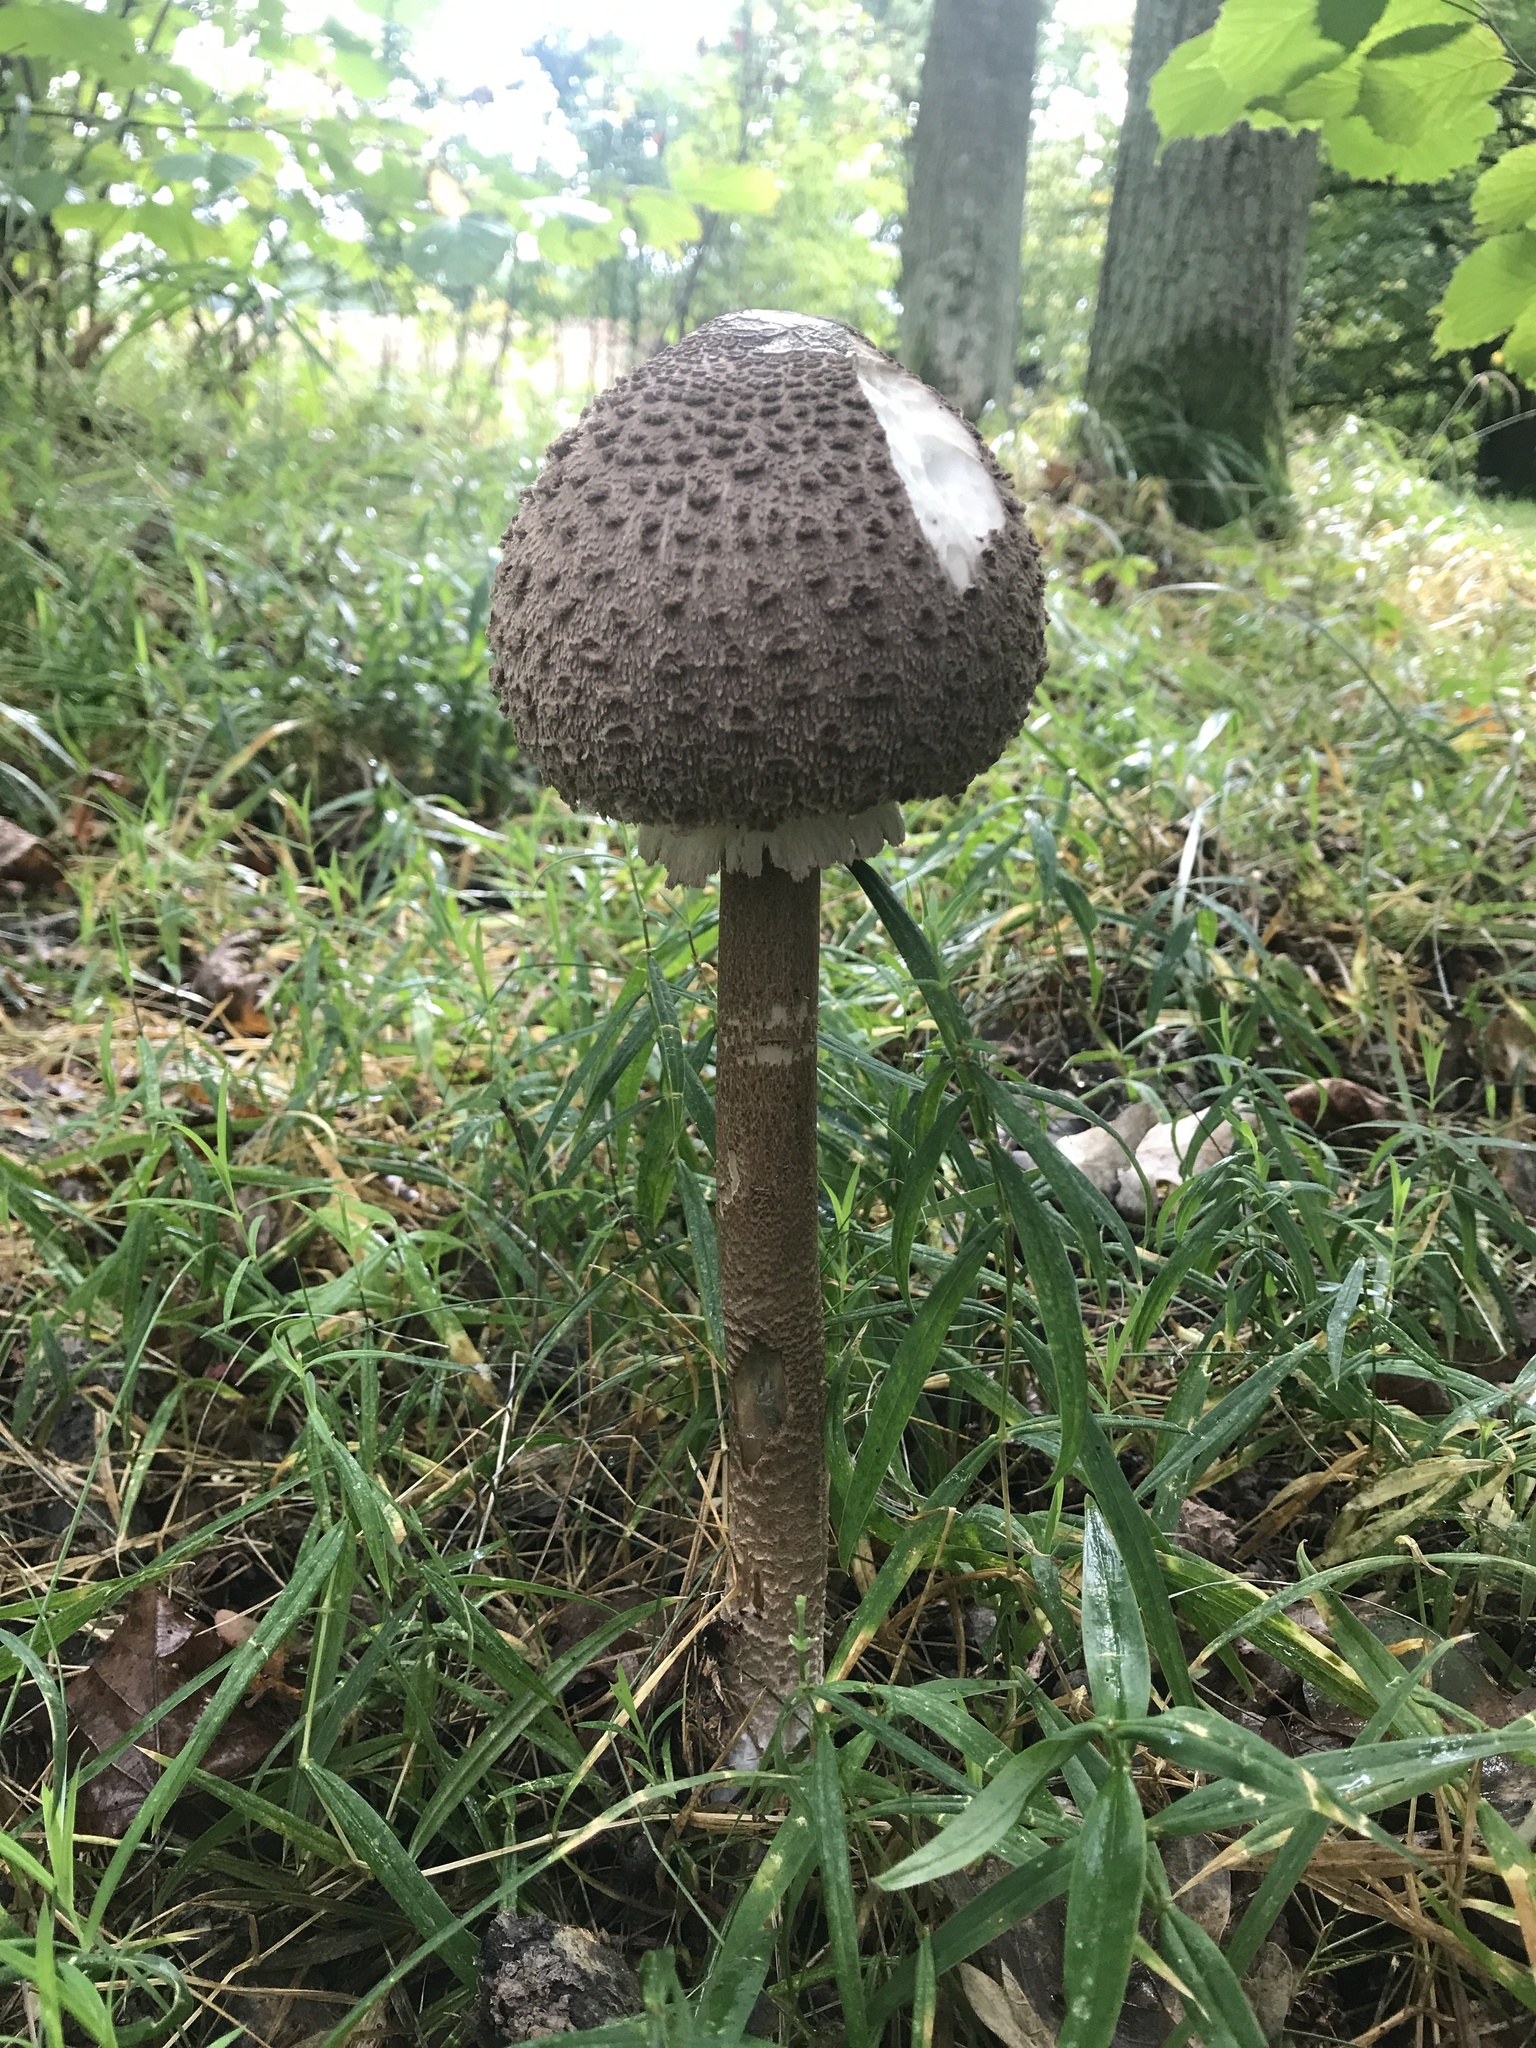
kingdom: Fungi
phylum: Basidiomycota
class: Agaricomycetes
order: Agaricales
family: Agaricaceae
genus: Macrolepiota
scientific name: Macrolepiota procera
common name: Parasol
